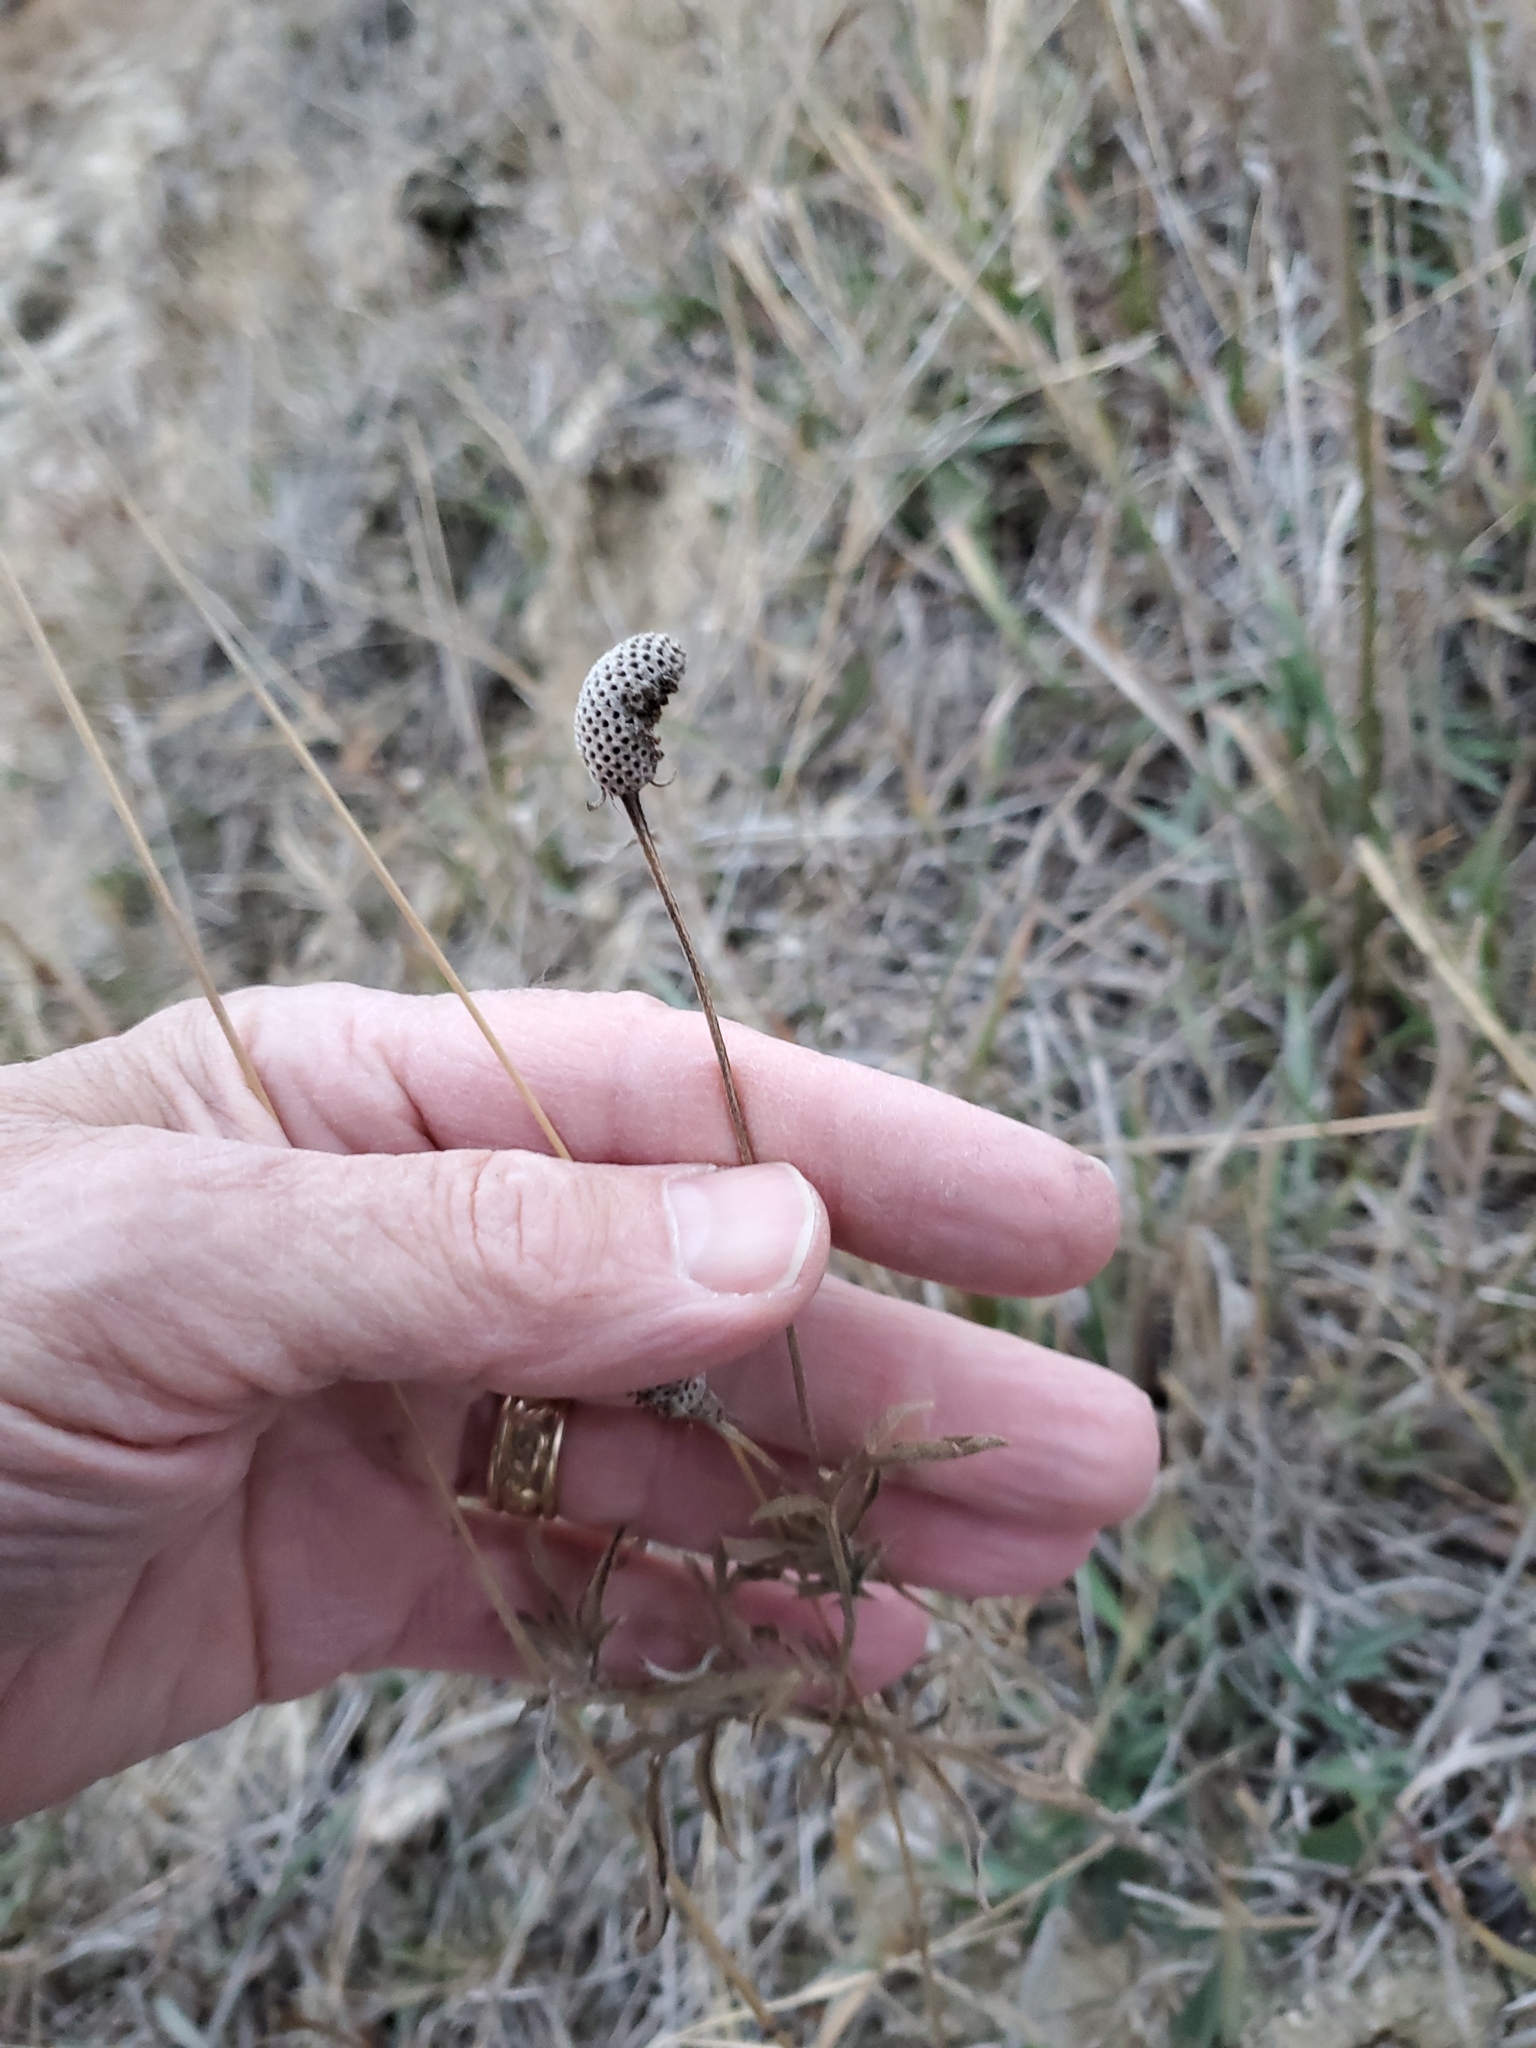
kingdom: Plantae
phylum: Tracheophyta
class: Magnoliopsida
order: Asterales
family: Asteraceae
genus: Ratibida
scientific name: Ratibida columnifera
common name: Prairie coneflower
